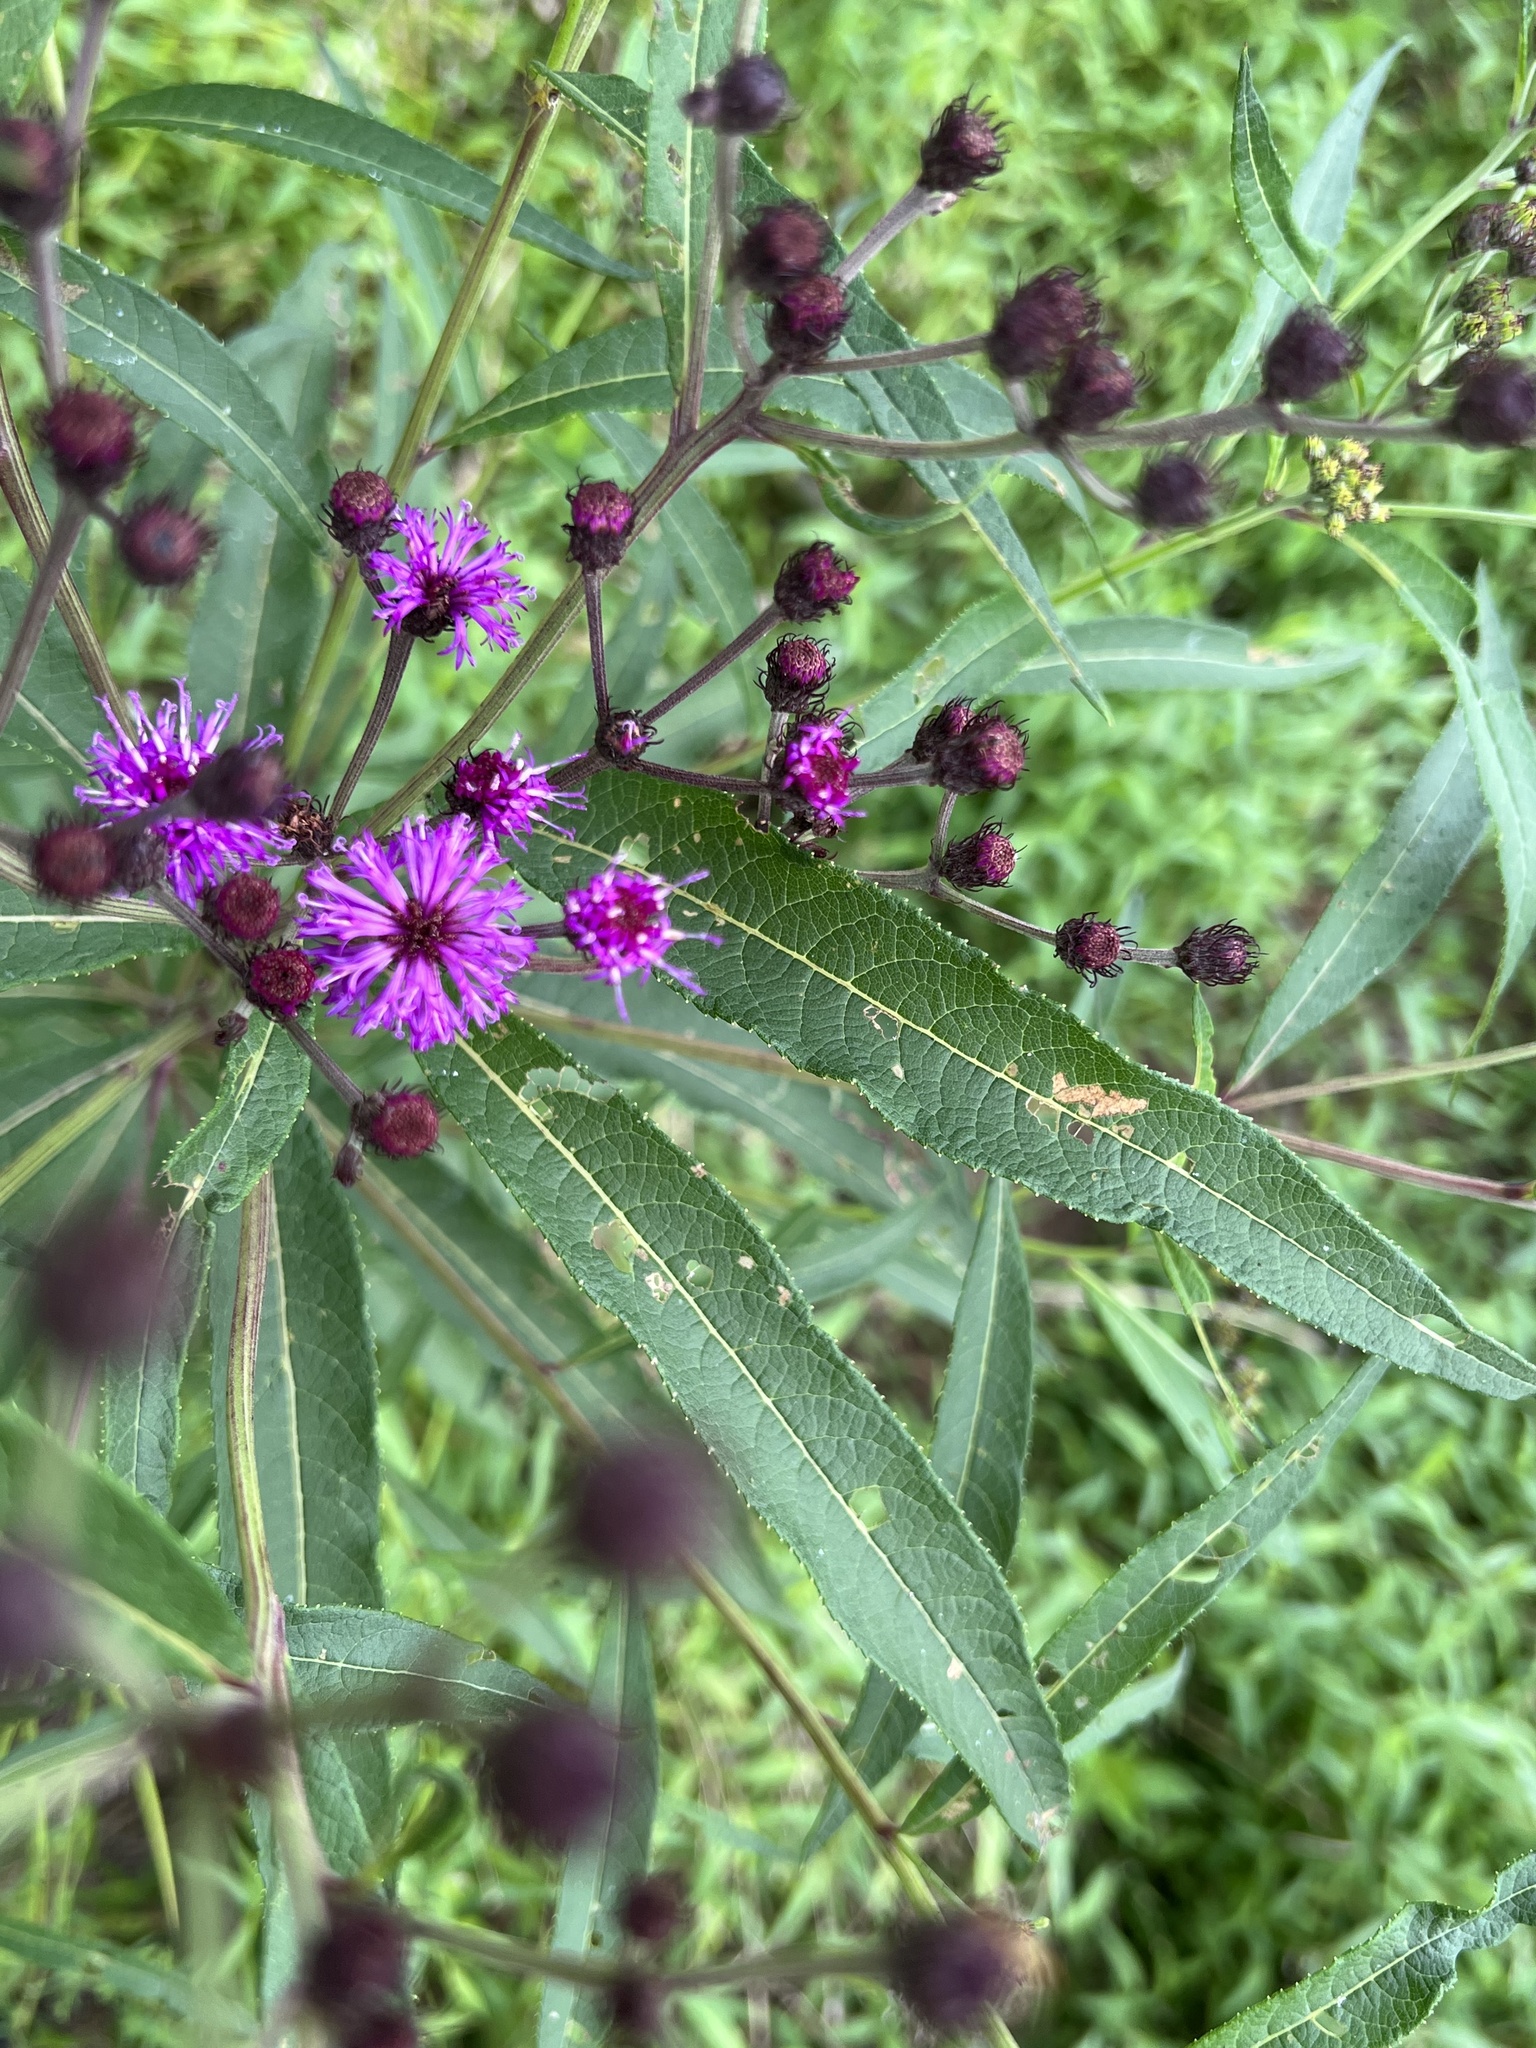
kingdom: Plantae
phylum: Tracheophyta
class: Magnoliopsida
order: Asterales
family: Asteraceae
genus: Vernonia
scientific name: Vernonia noveboracensis
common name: New york ironweed
